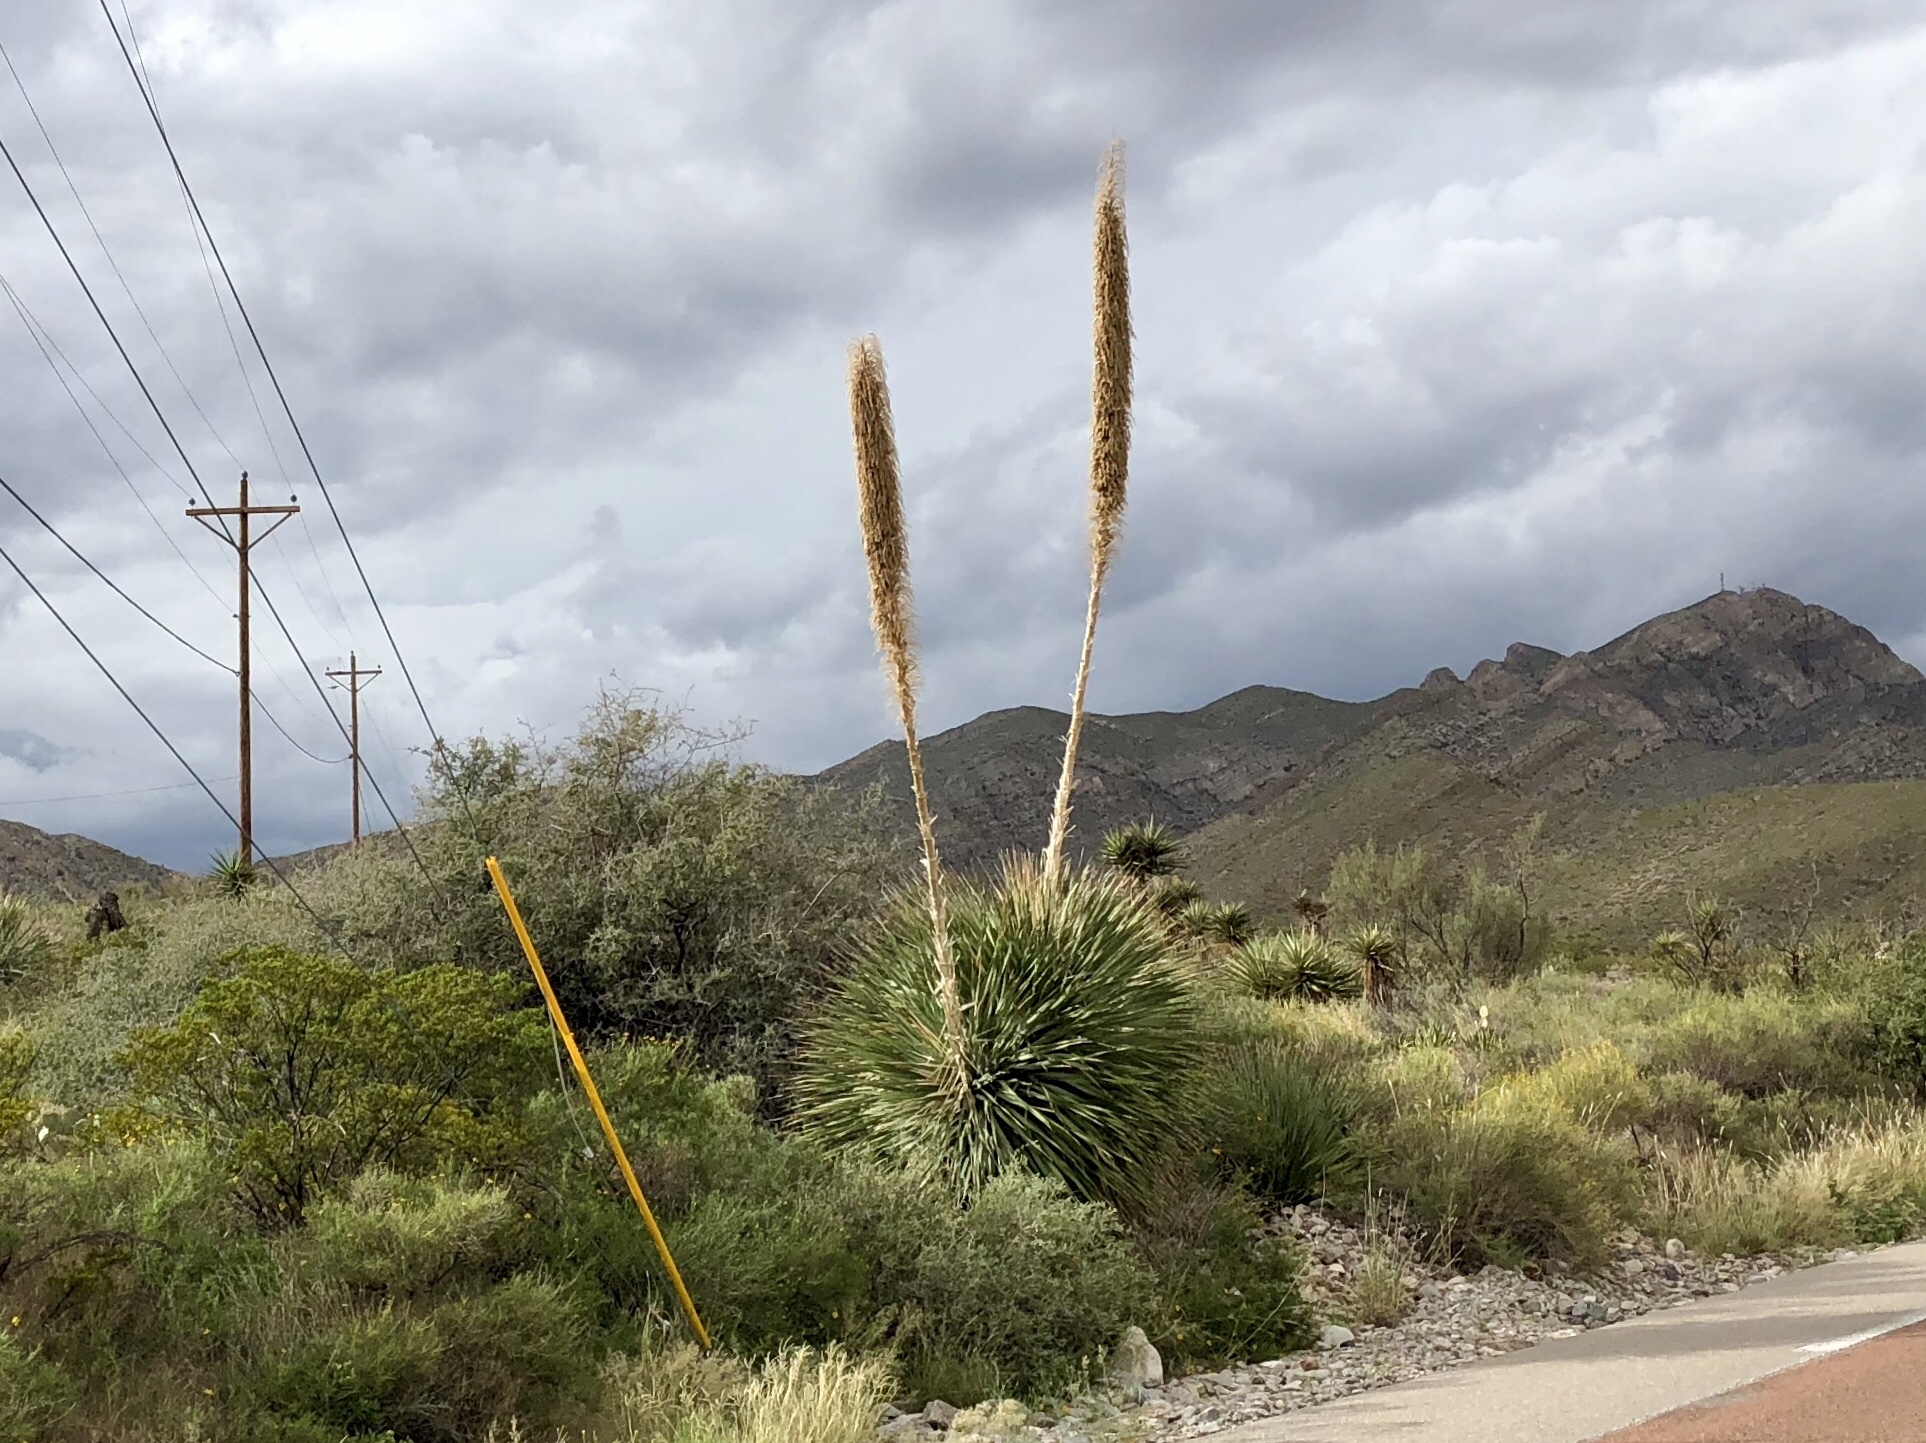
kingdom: Plantae
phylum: Tracheophyta
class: Liliopsida
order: Asparagales
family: Asparagaceae
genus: Dasylirion
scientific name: Dasylirion wheeleri
